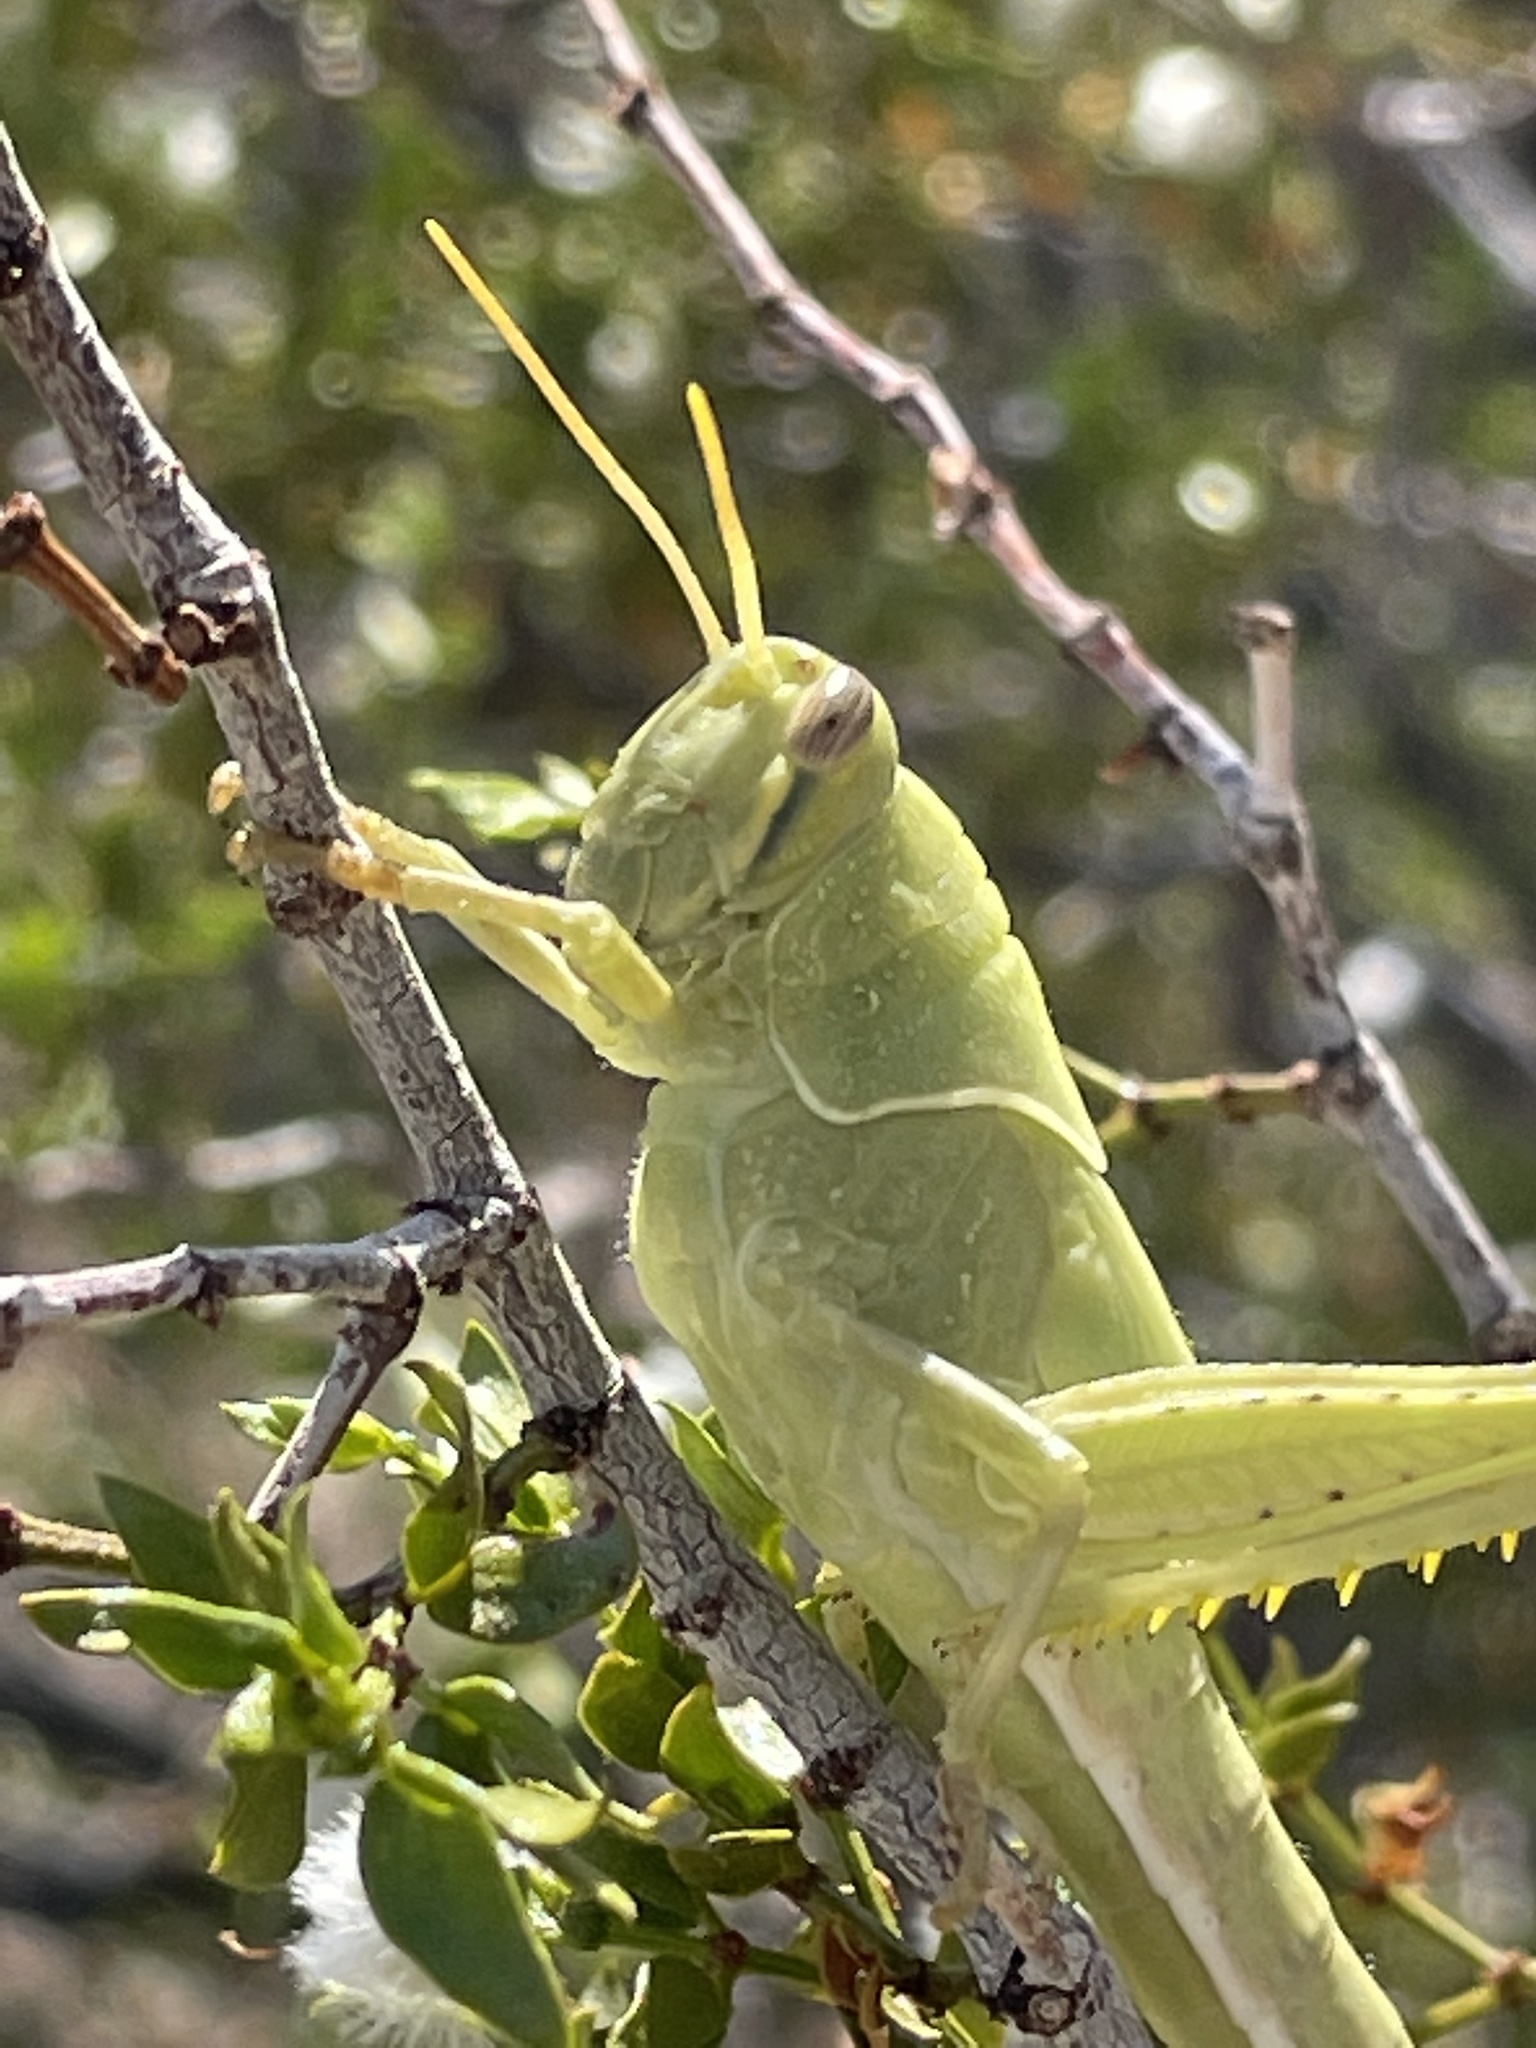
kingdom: Animalia
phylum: Arthropoda
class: Insecta
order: Orthoptera
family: Acrididae
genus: Schistocerca
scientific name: Schistocerca nitens
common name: Vagrant grasshopper
